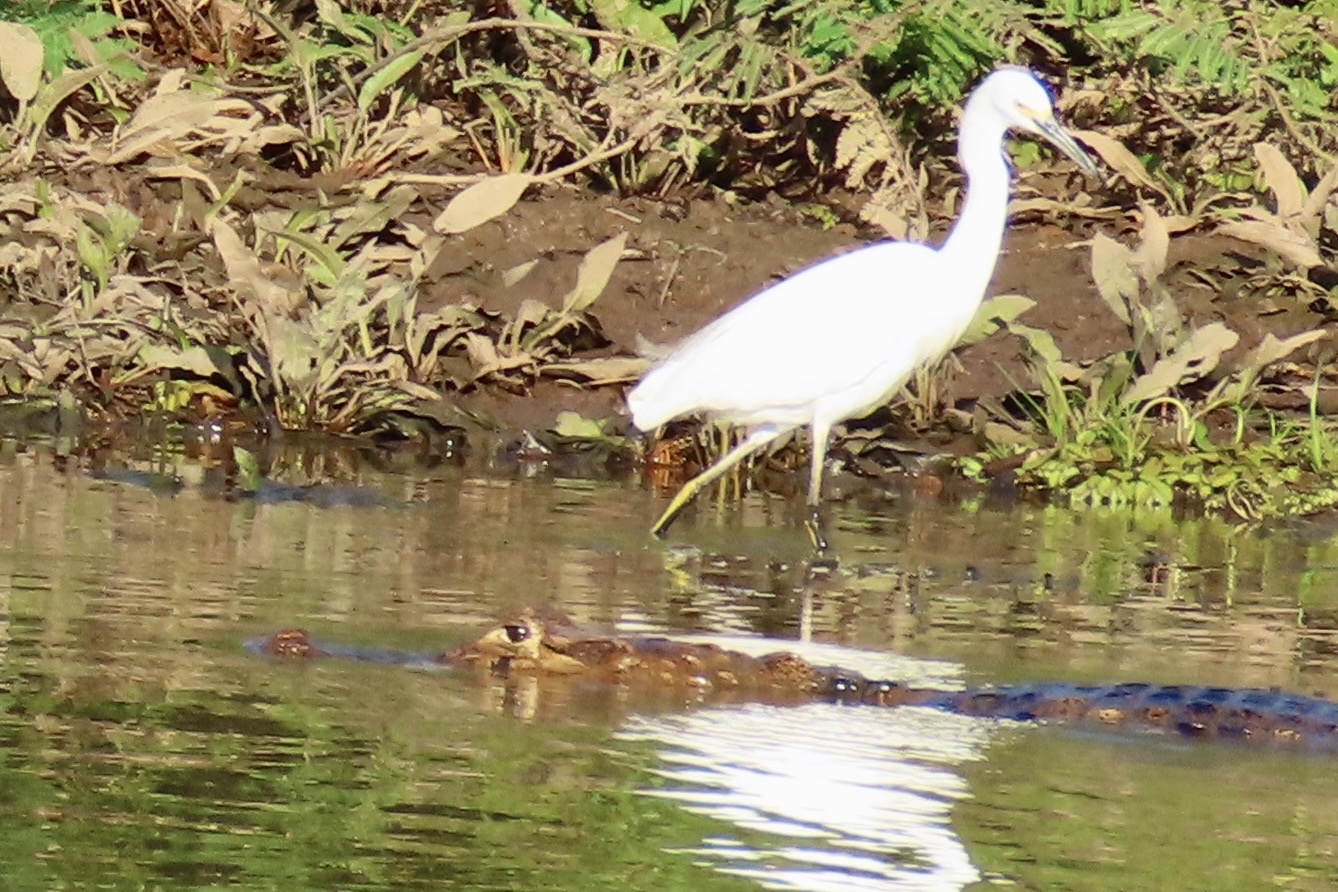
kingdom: Animalia
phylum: Chordata
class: Aves
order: Pelecaniformes
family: Ardeidae
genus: Egretta
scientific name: Egretta thula
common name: Snowy egret
